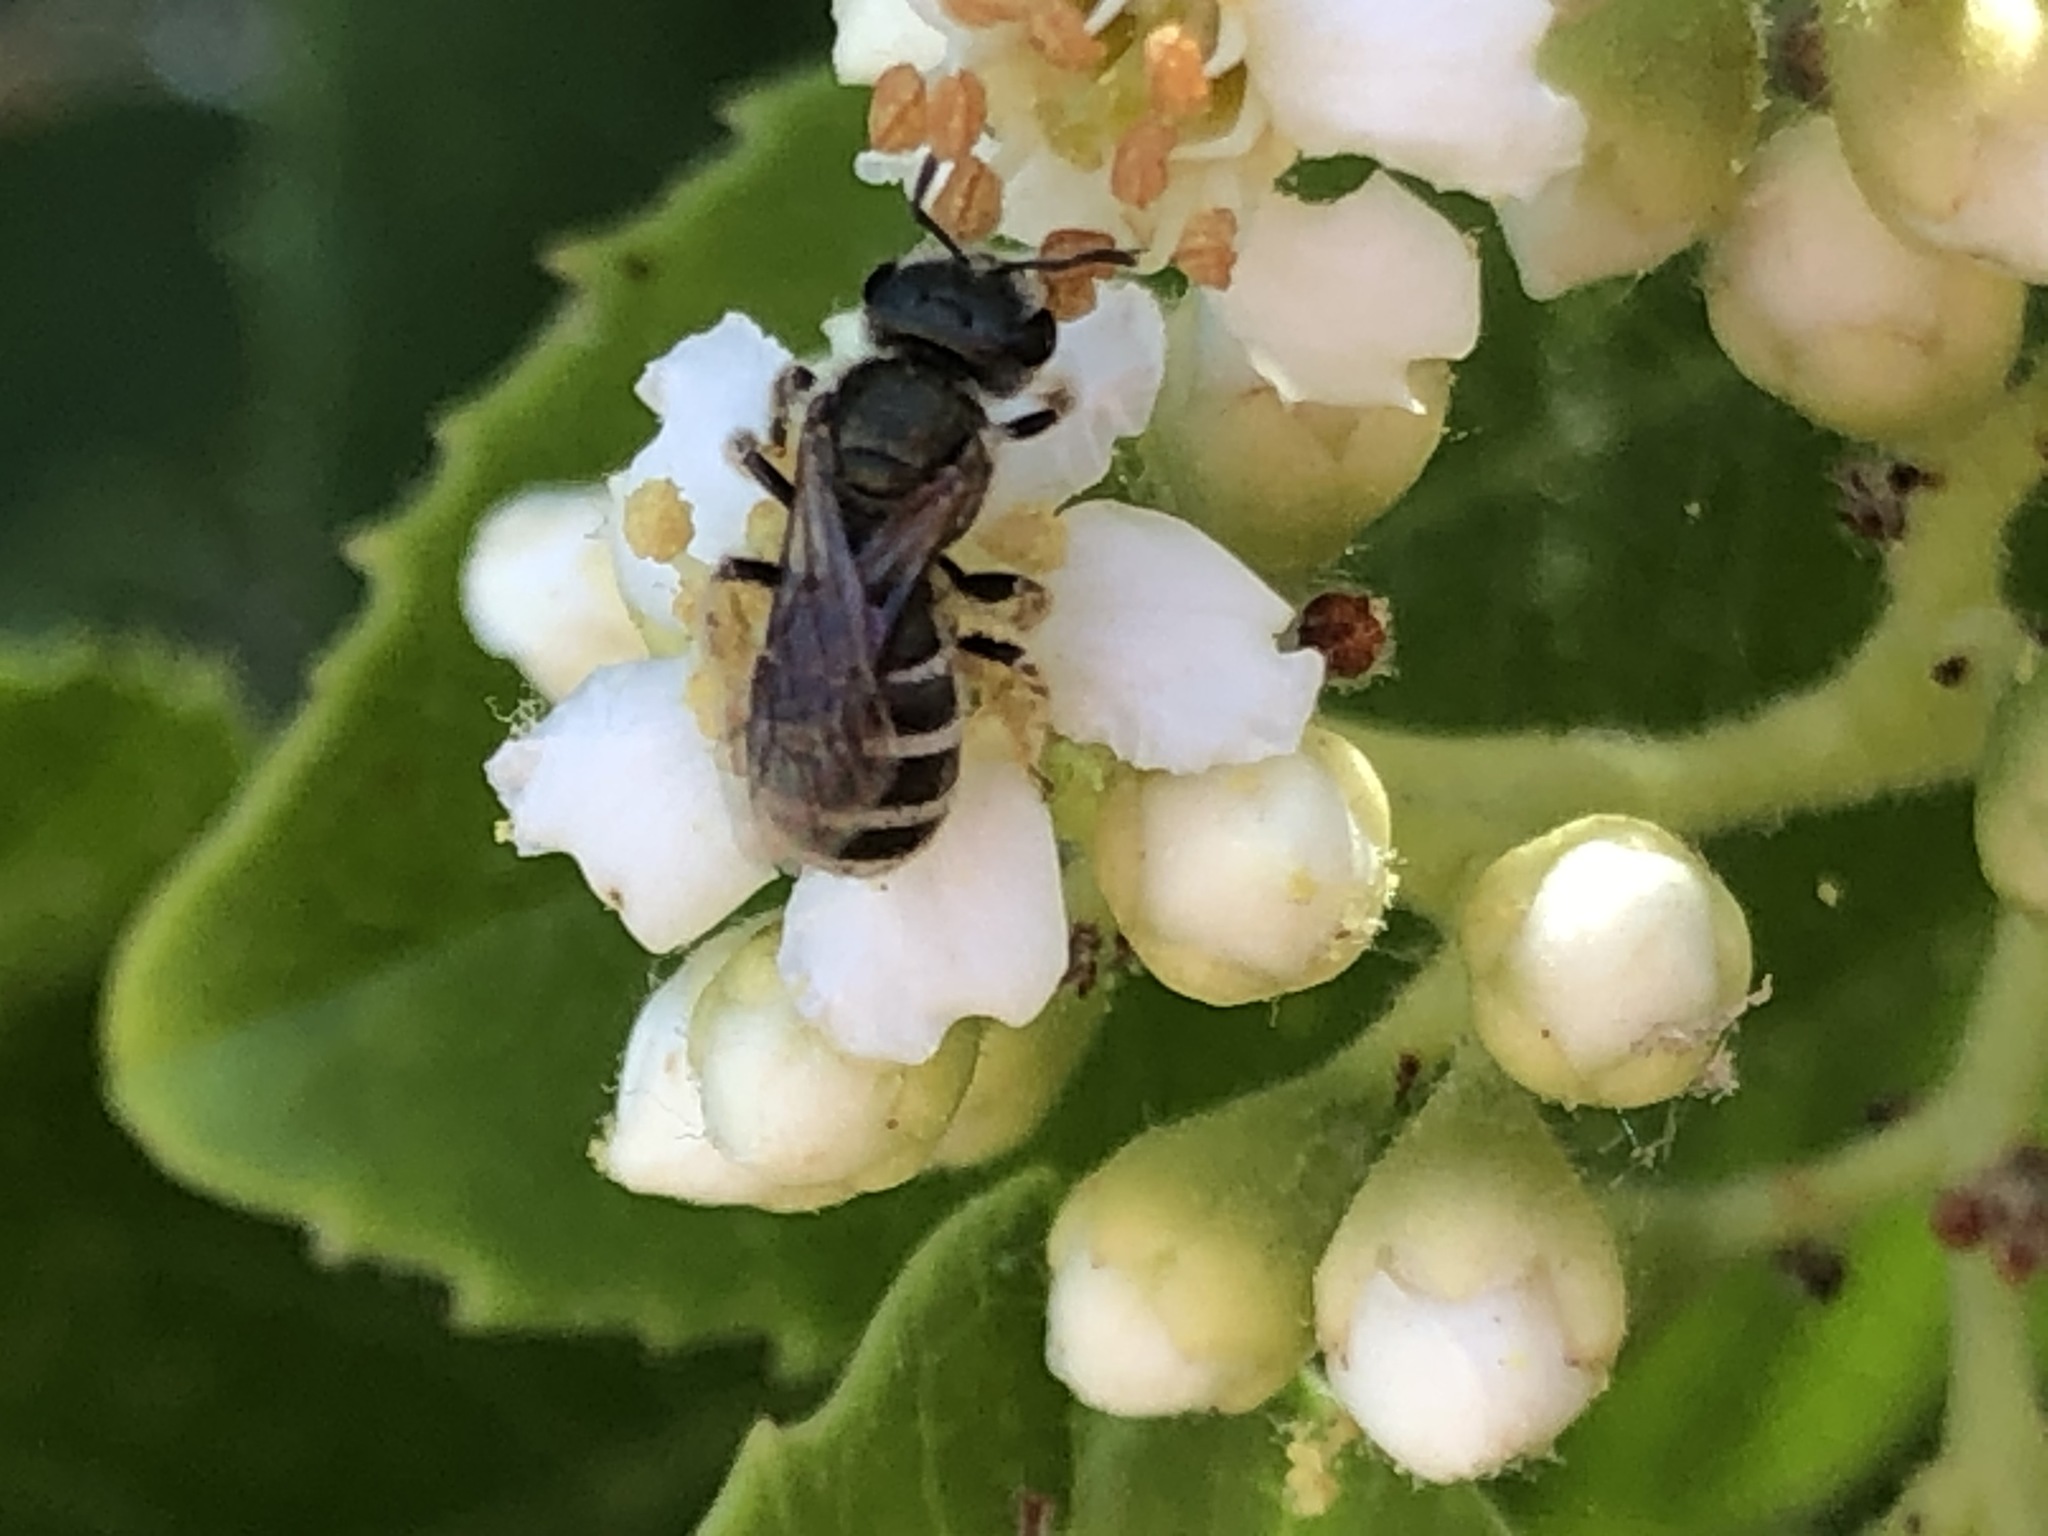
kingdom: Animalia
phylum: Arthropoda
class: Insecta
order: Hymenoptera
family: Halictidae
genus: Halictus
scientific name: Halictus tripartitus
